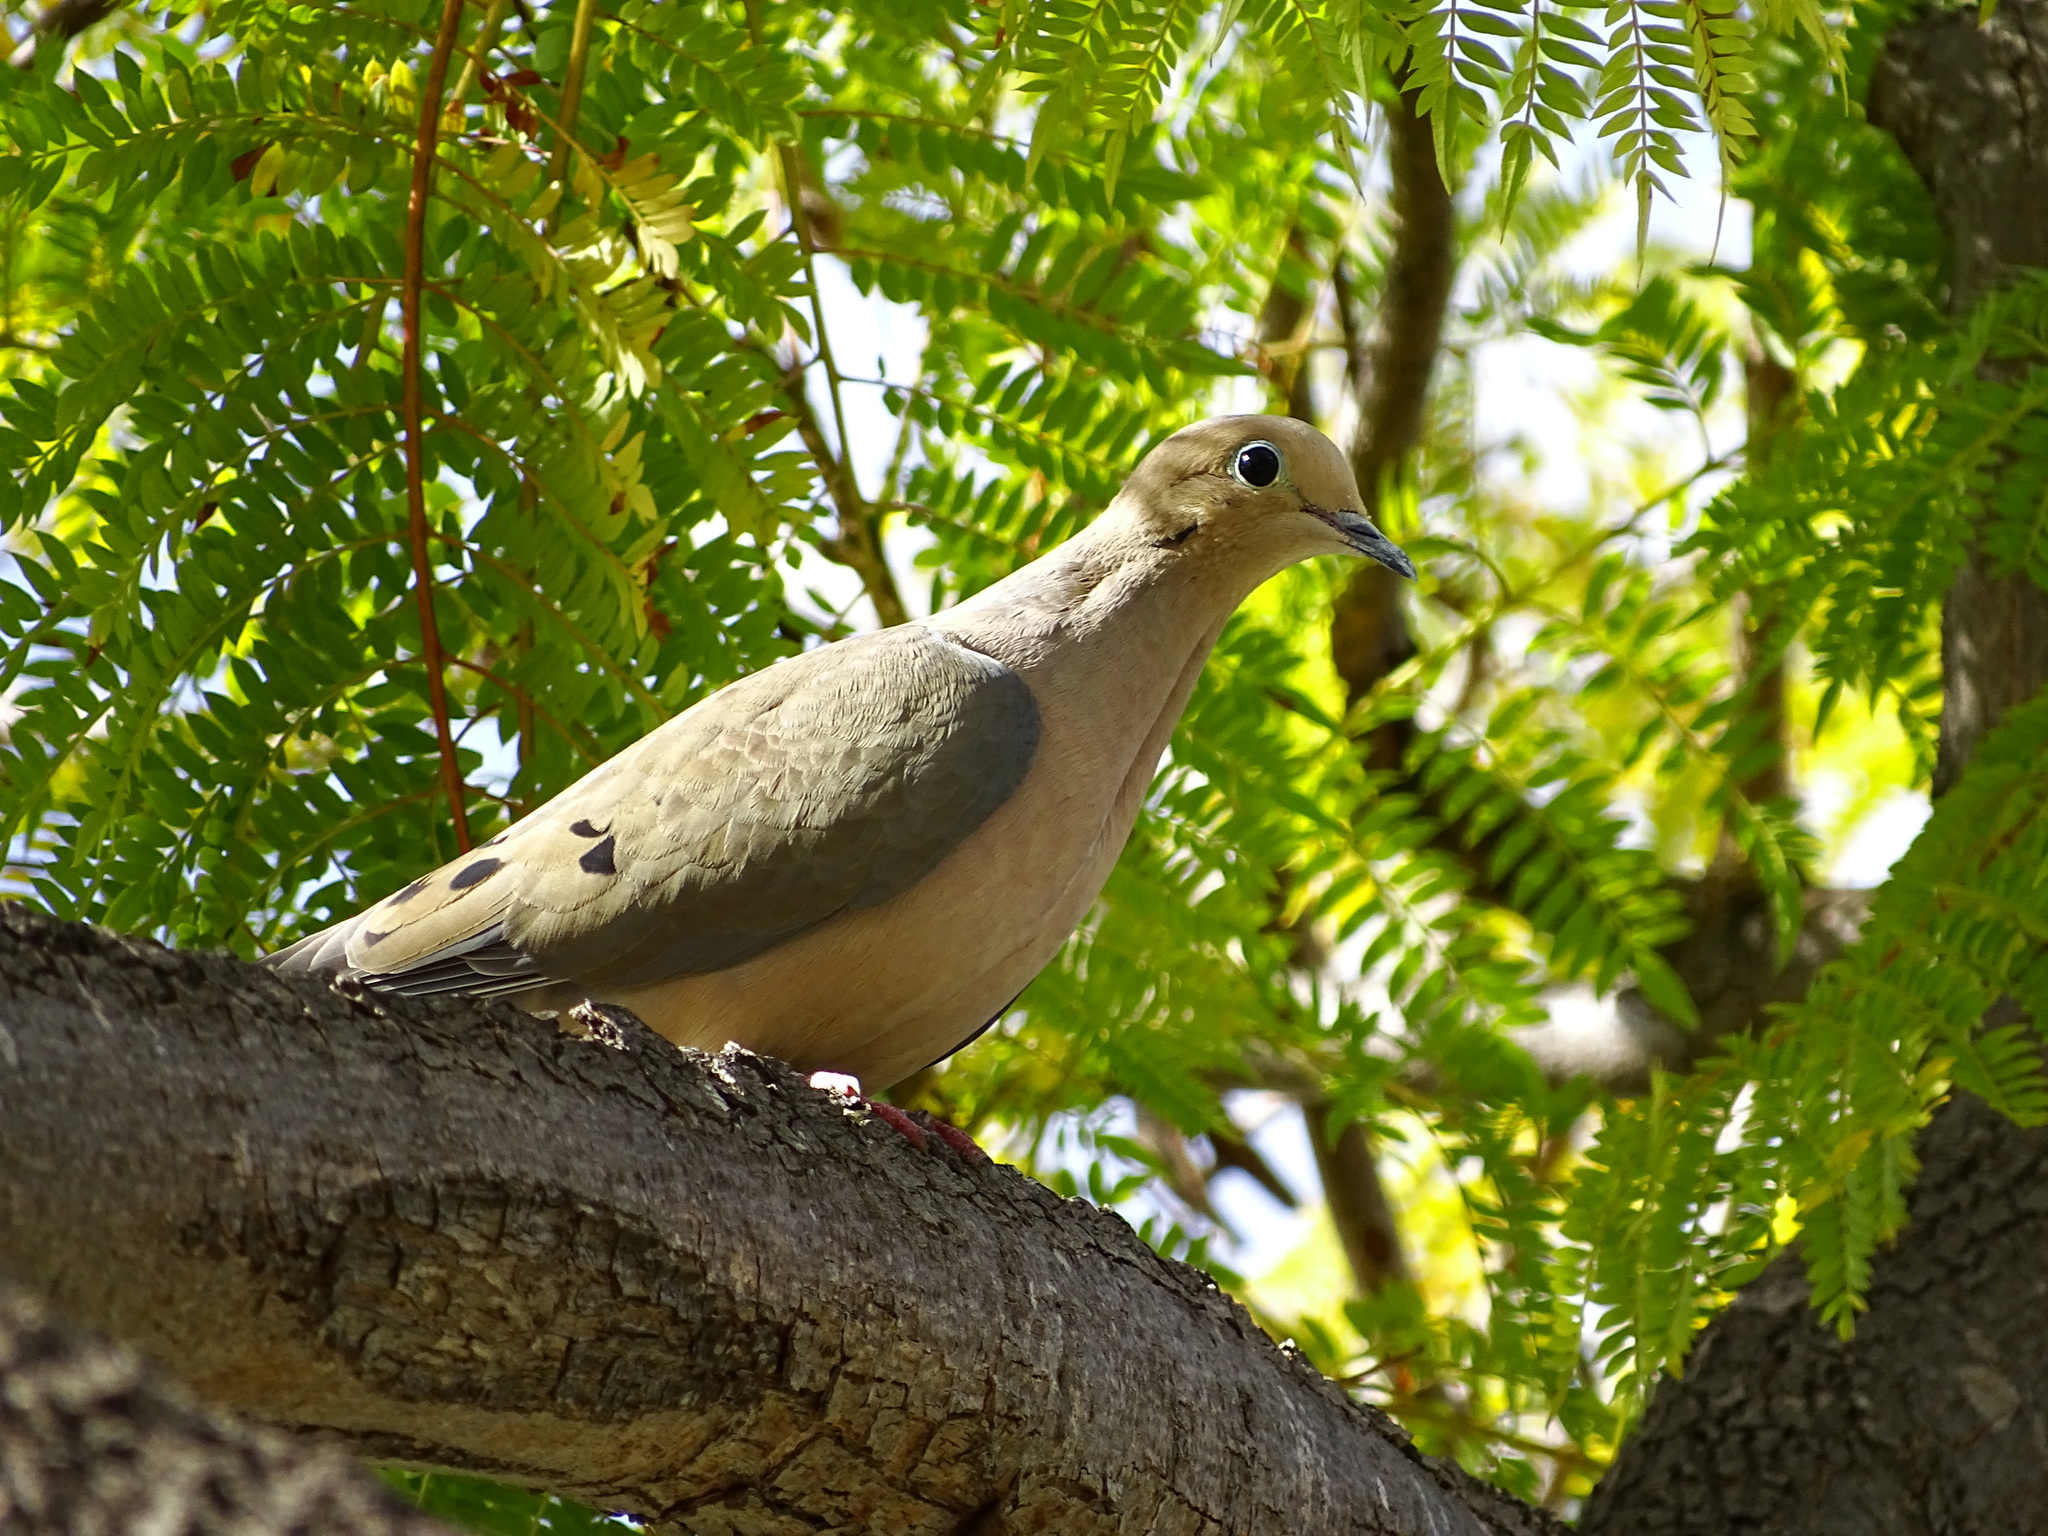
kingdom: Animalia
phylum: Chordata
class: Aves
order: Columbiformes
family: Columbidae
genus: Zenaida
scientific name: Zenaida macroura
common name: Mourning dove
